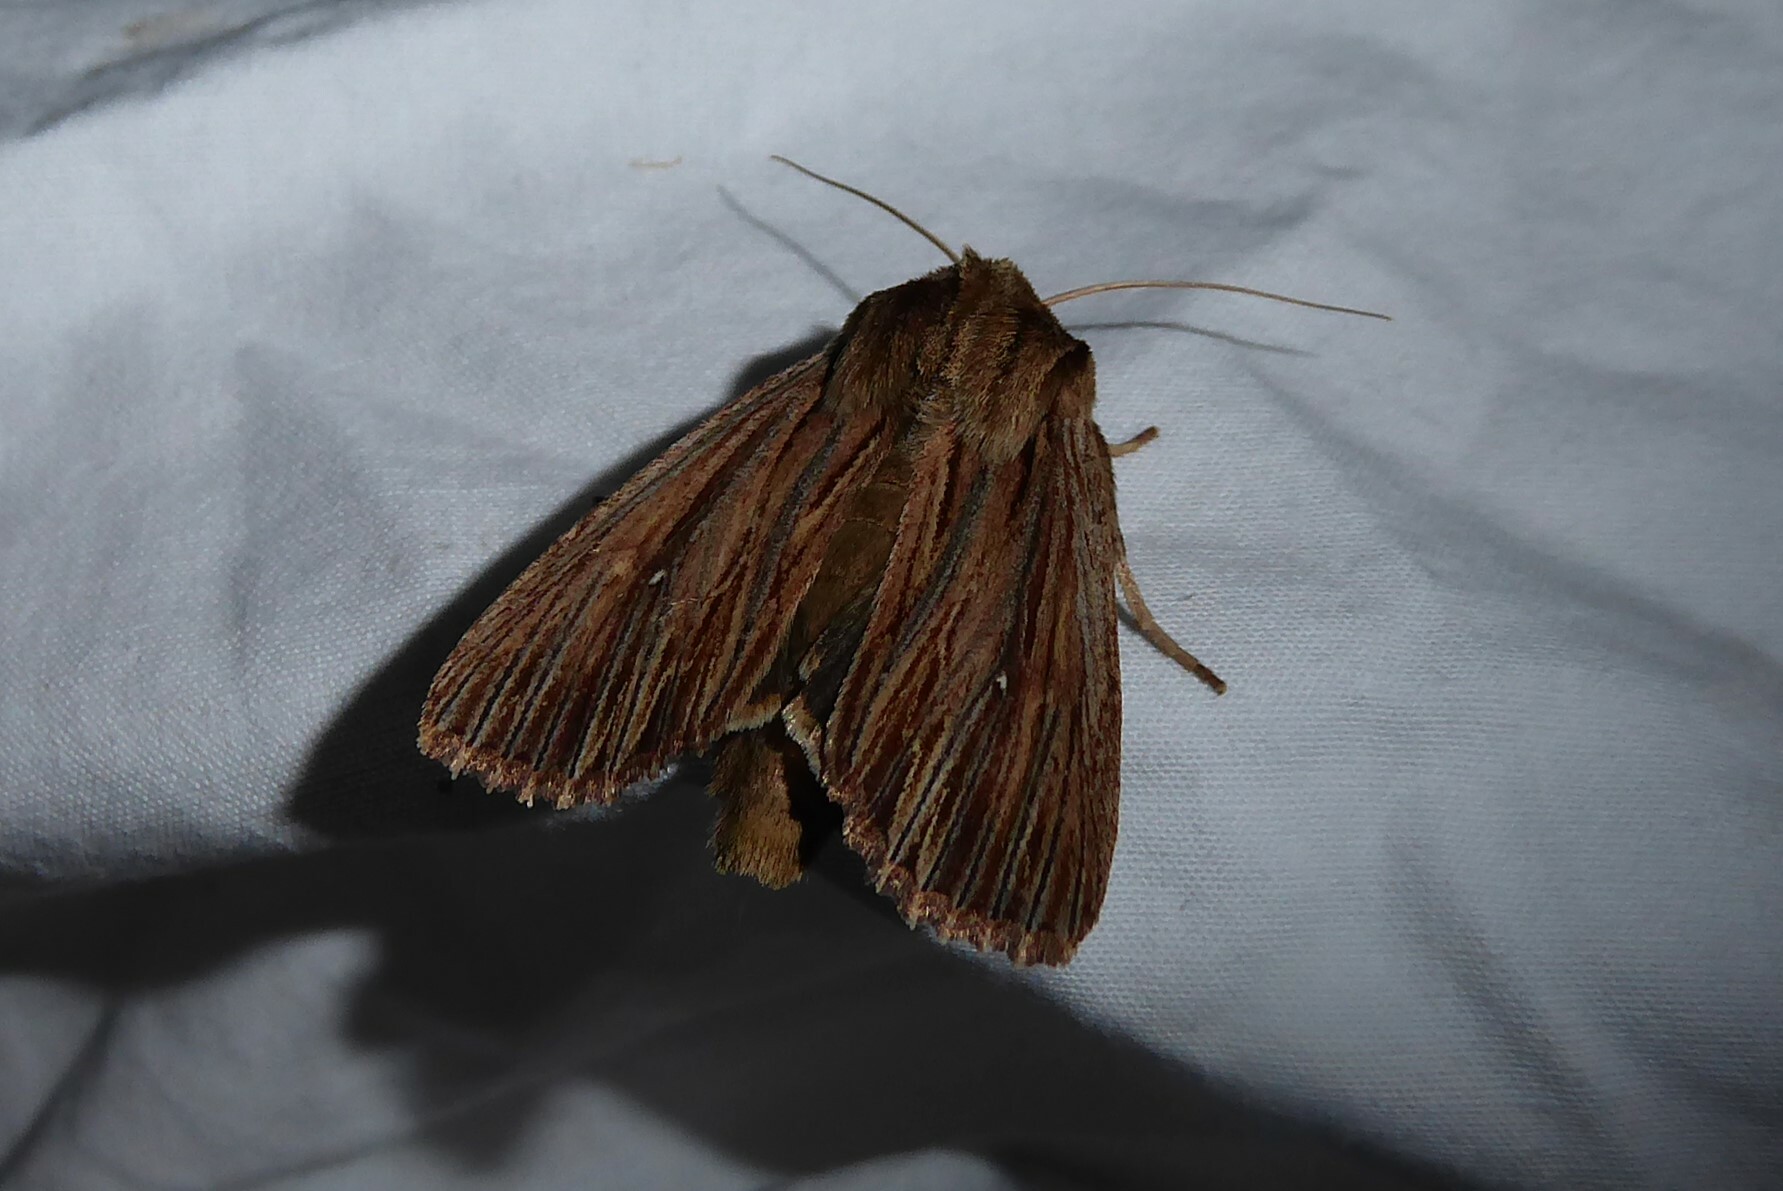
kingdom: Animalia
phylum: Arthropoda
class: Insecta
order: Lepidoptera
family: Noctuidae
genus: Ichneutica
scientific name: Ichneutica
